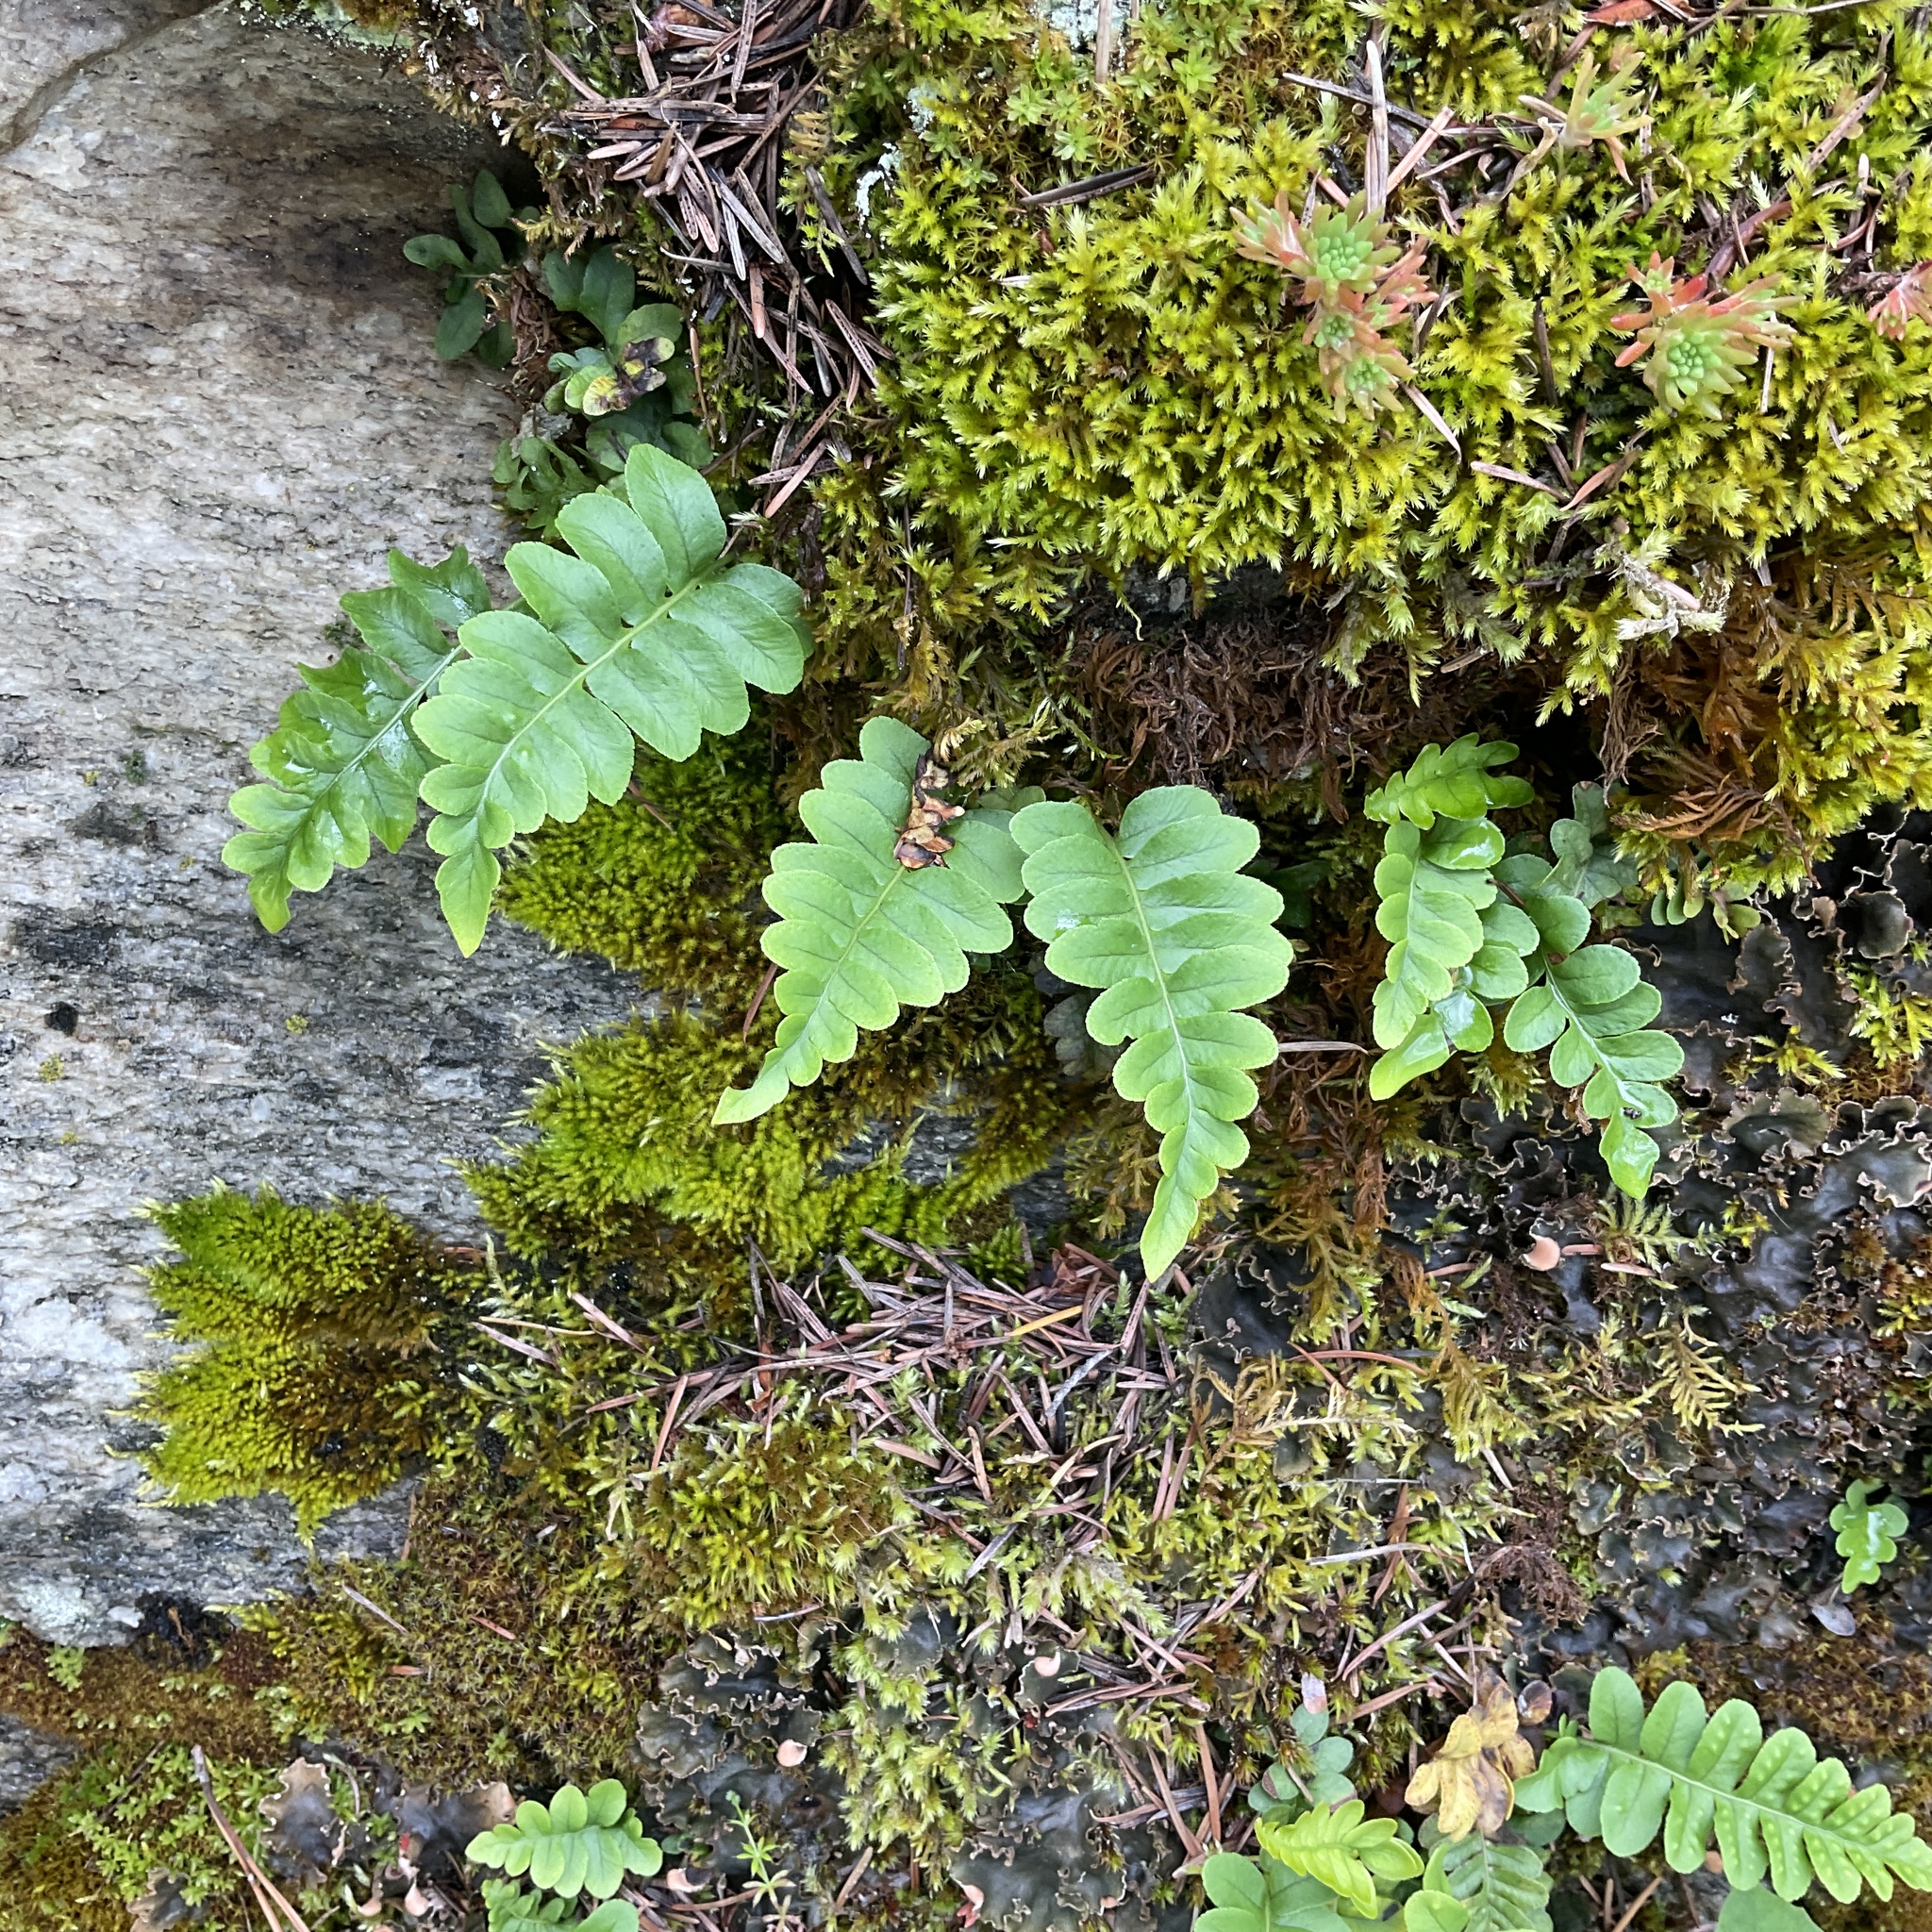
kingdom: Plantae
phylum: Tracheophyta
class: Polypodiopsida
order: Polypodiales
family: Polypodiaceae
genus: Polypodium
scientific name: Polypodium hesperium
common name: Western polypody
